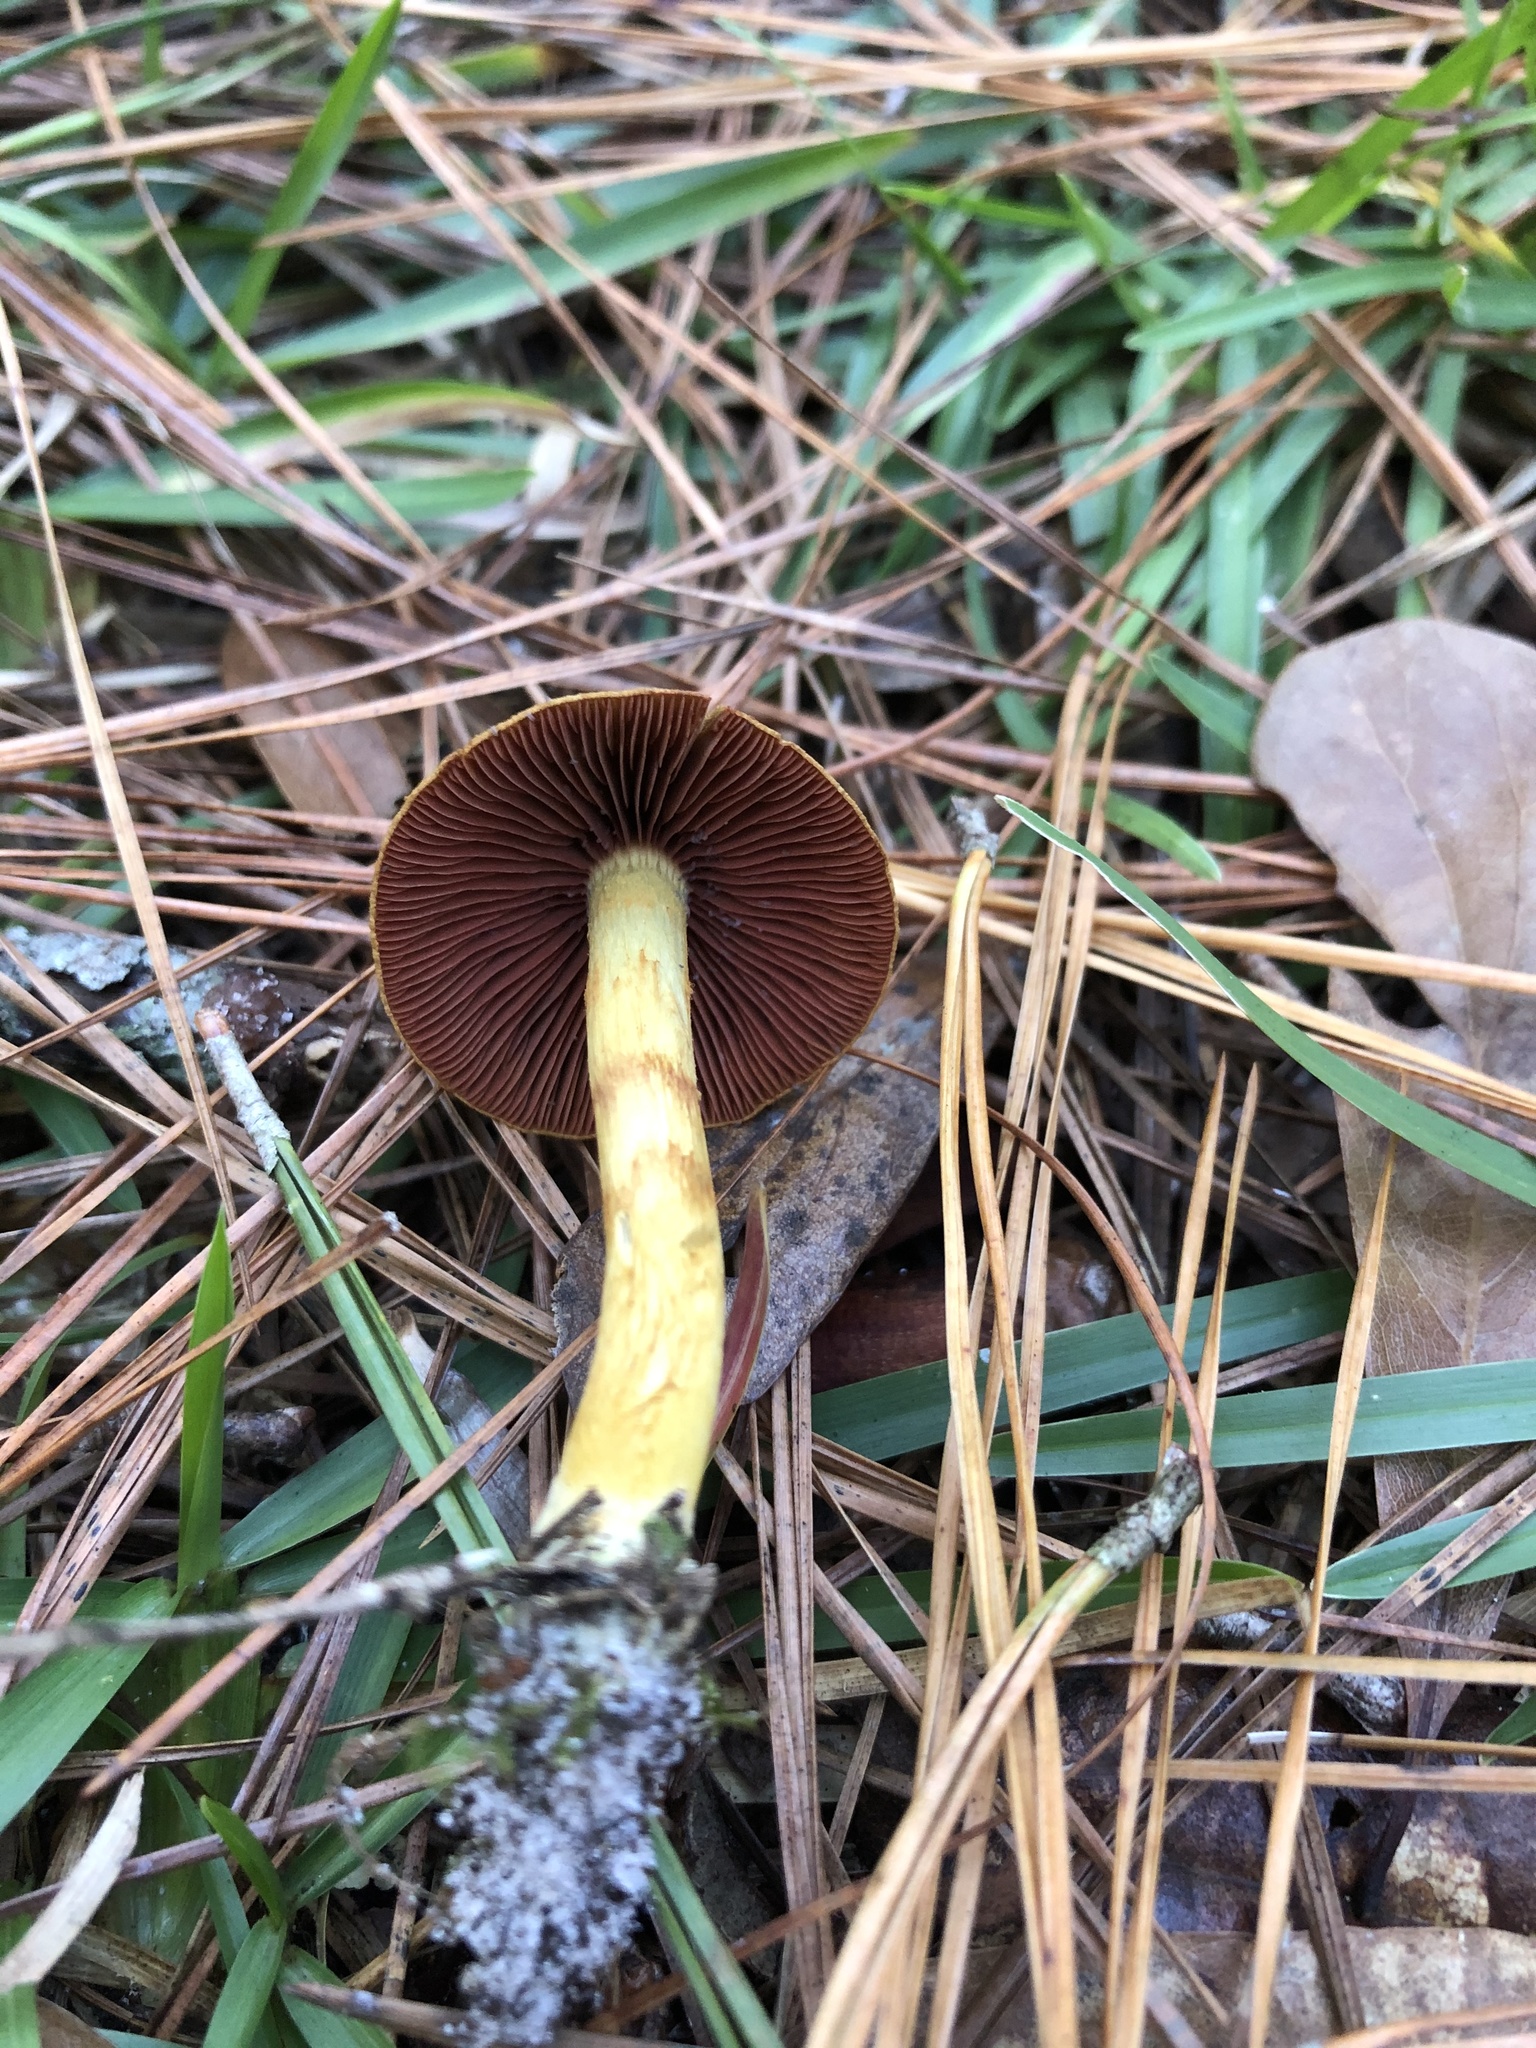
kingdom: Fungi
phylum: Basidiomycota
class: Agaricomycetes
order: Agaricales
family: Cortinariaceae
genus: Cortinarius
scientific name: Cortinarius semisanguineus
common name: Surprise webcap
